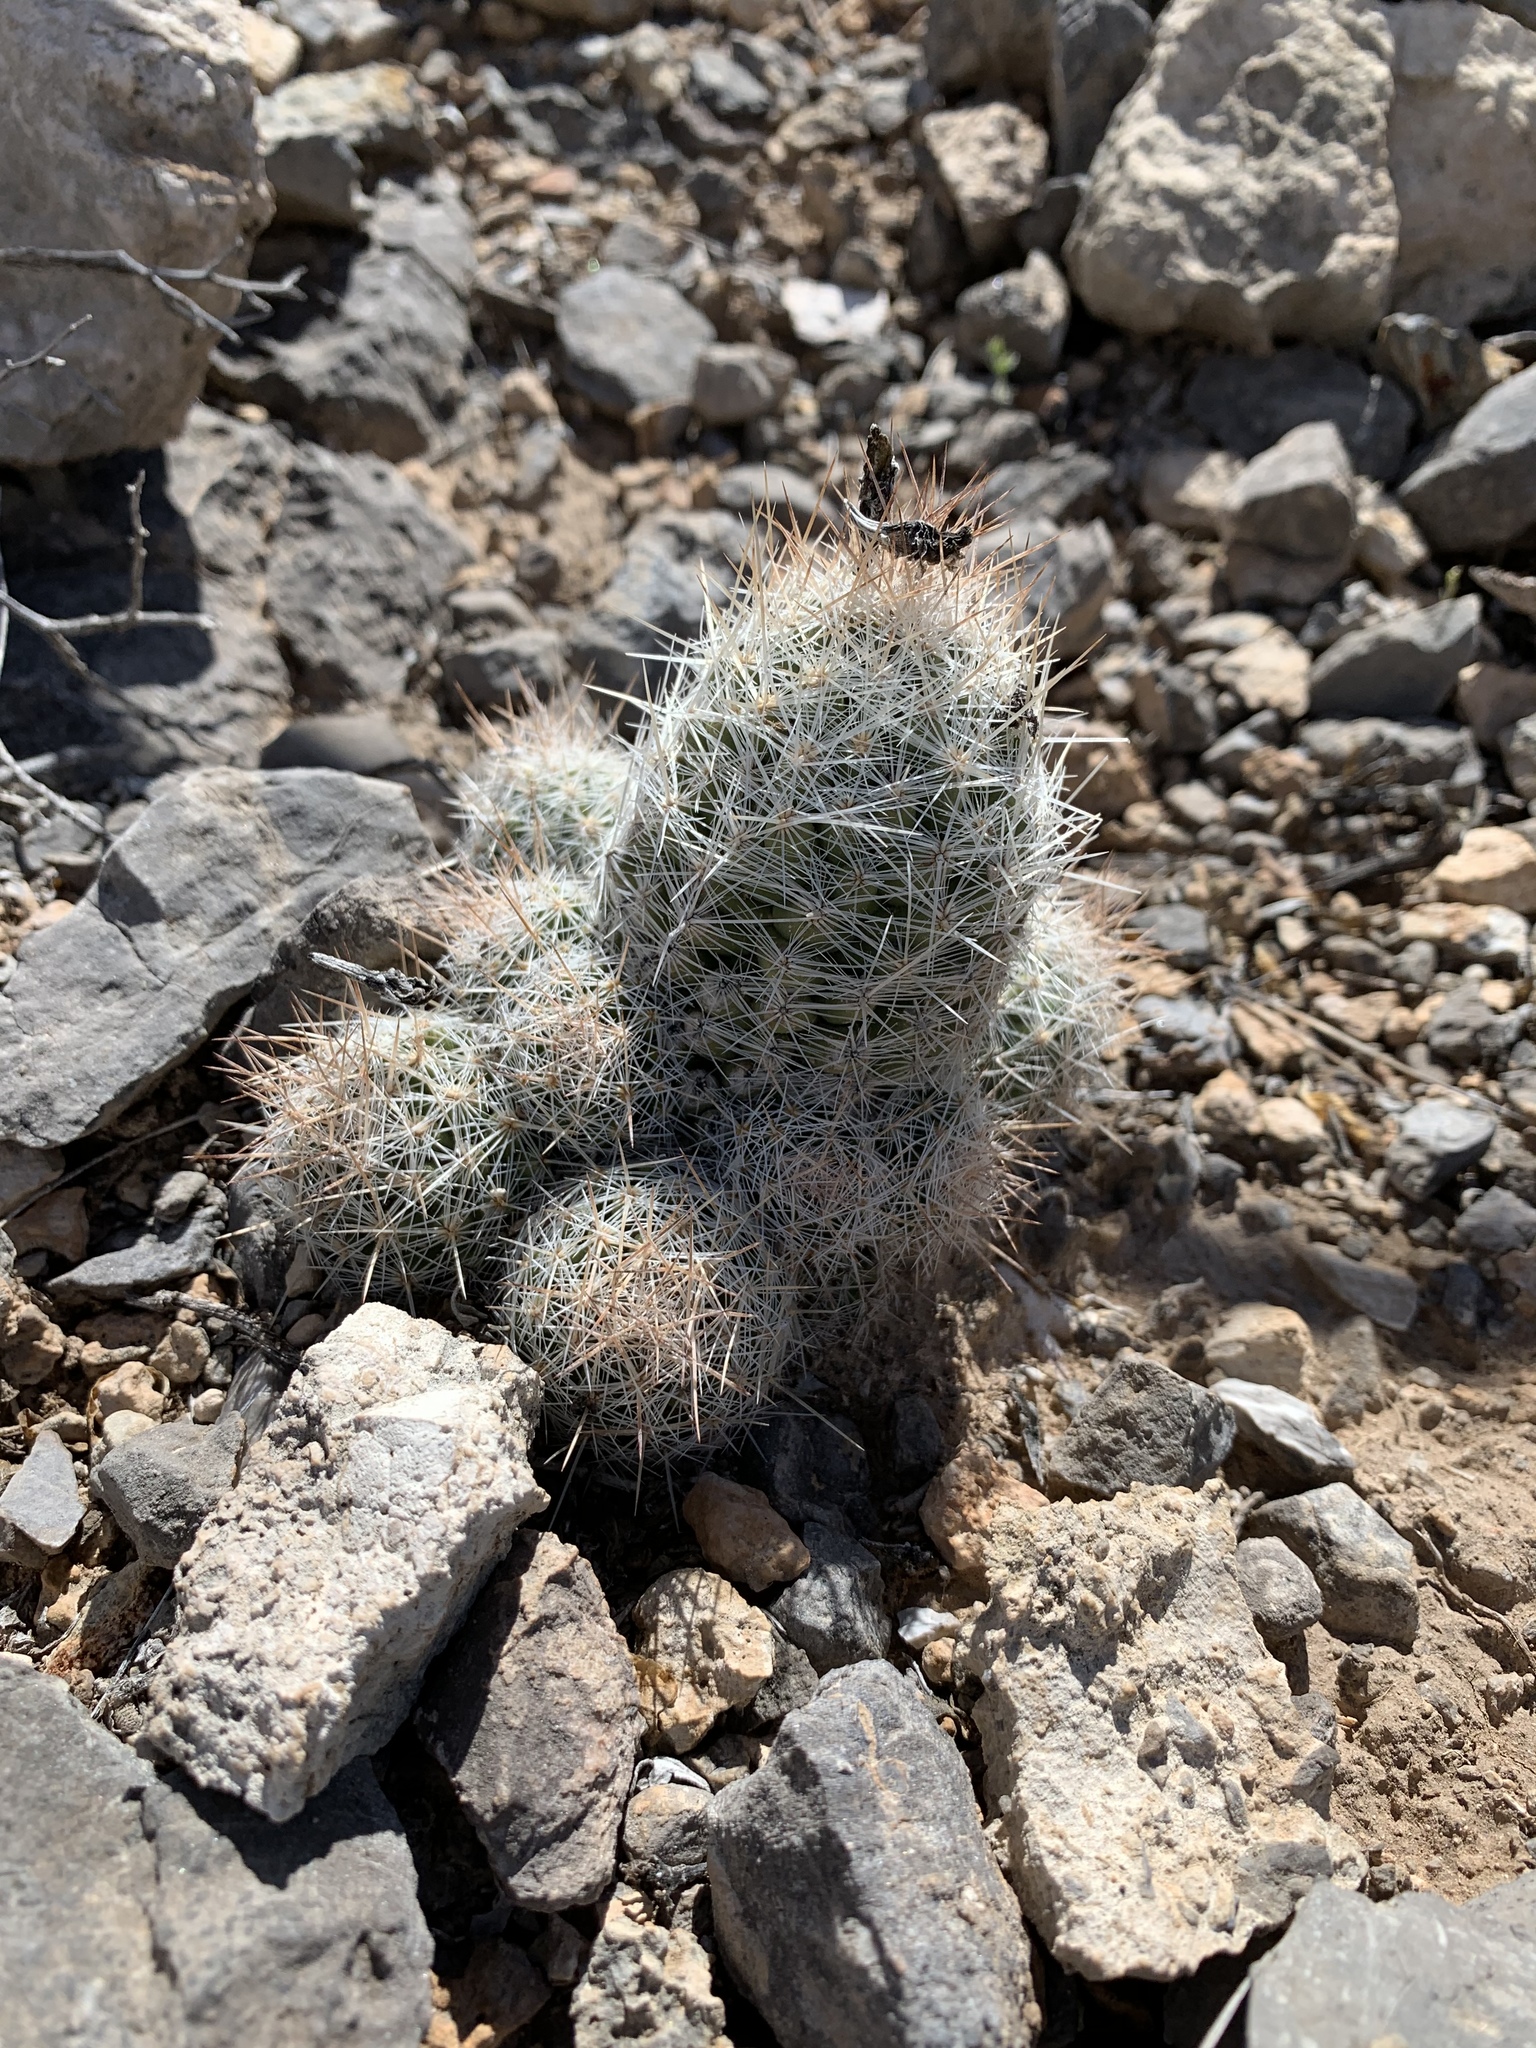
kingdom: Plantae
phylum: Tracheophyta
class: Magnoliopsida
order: Caryophyllales
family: Cactaceae
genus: Pelecyphora
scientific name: Pelecyphora tuberculosa
